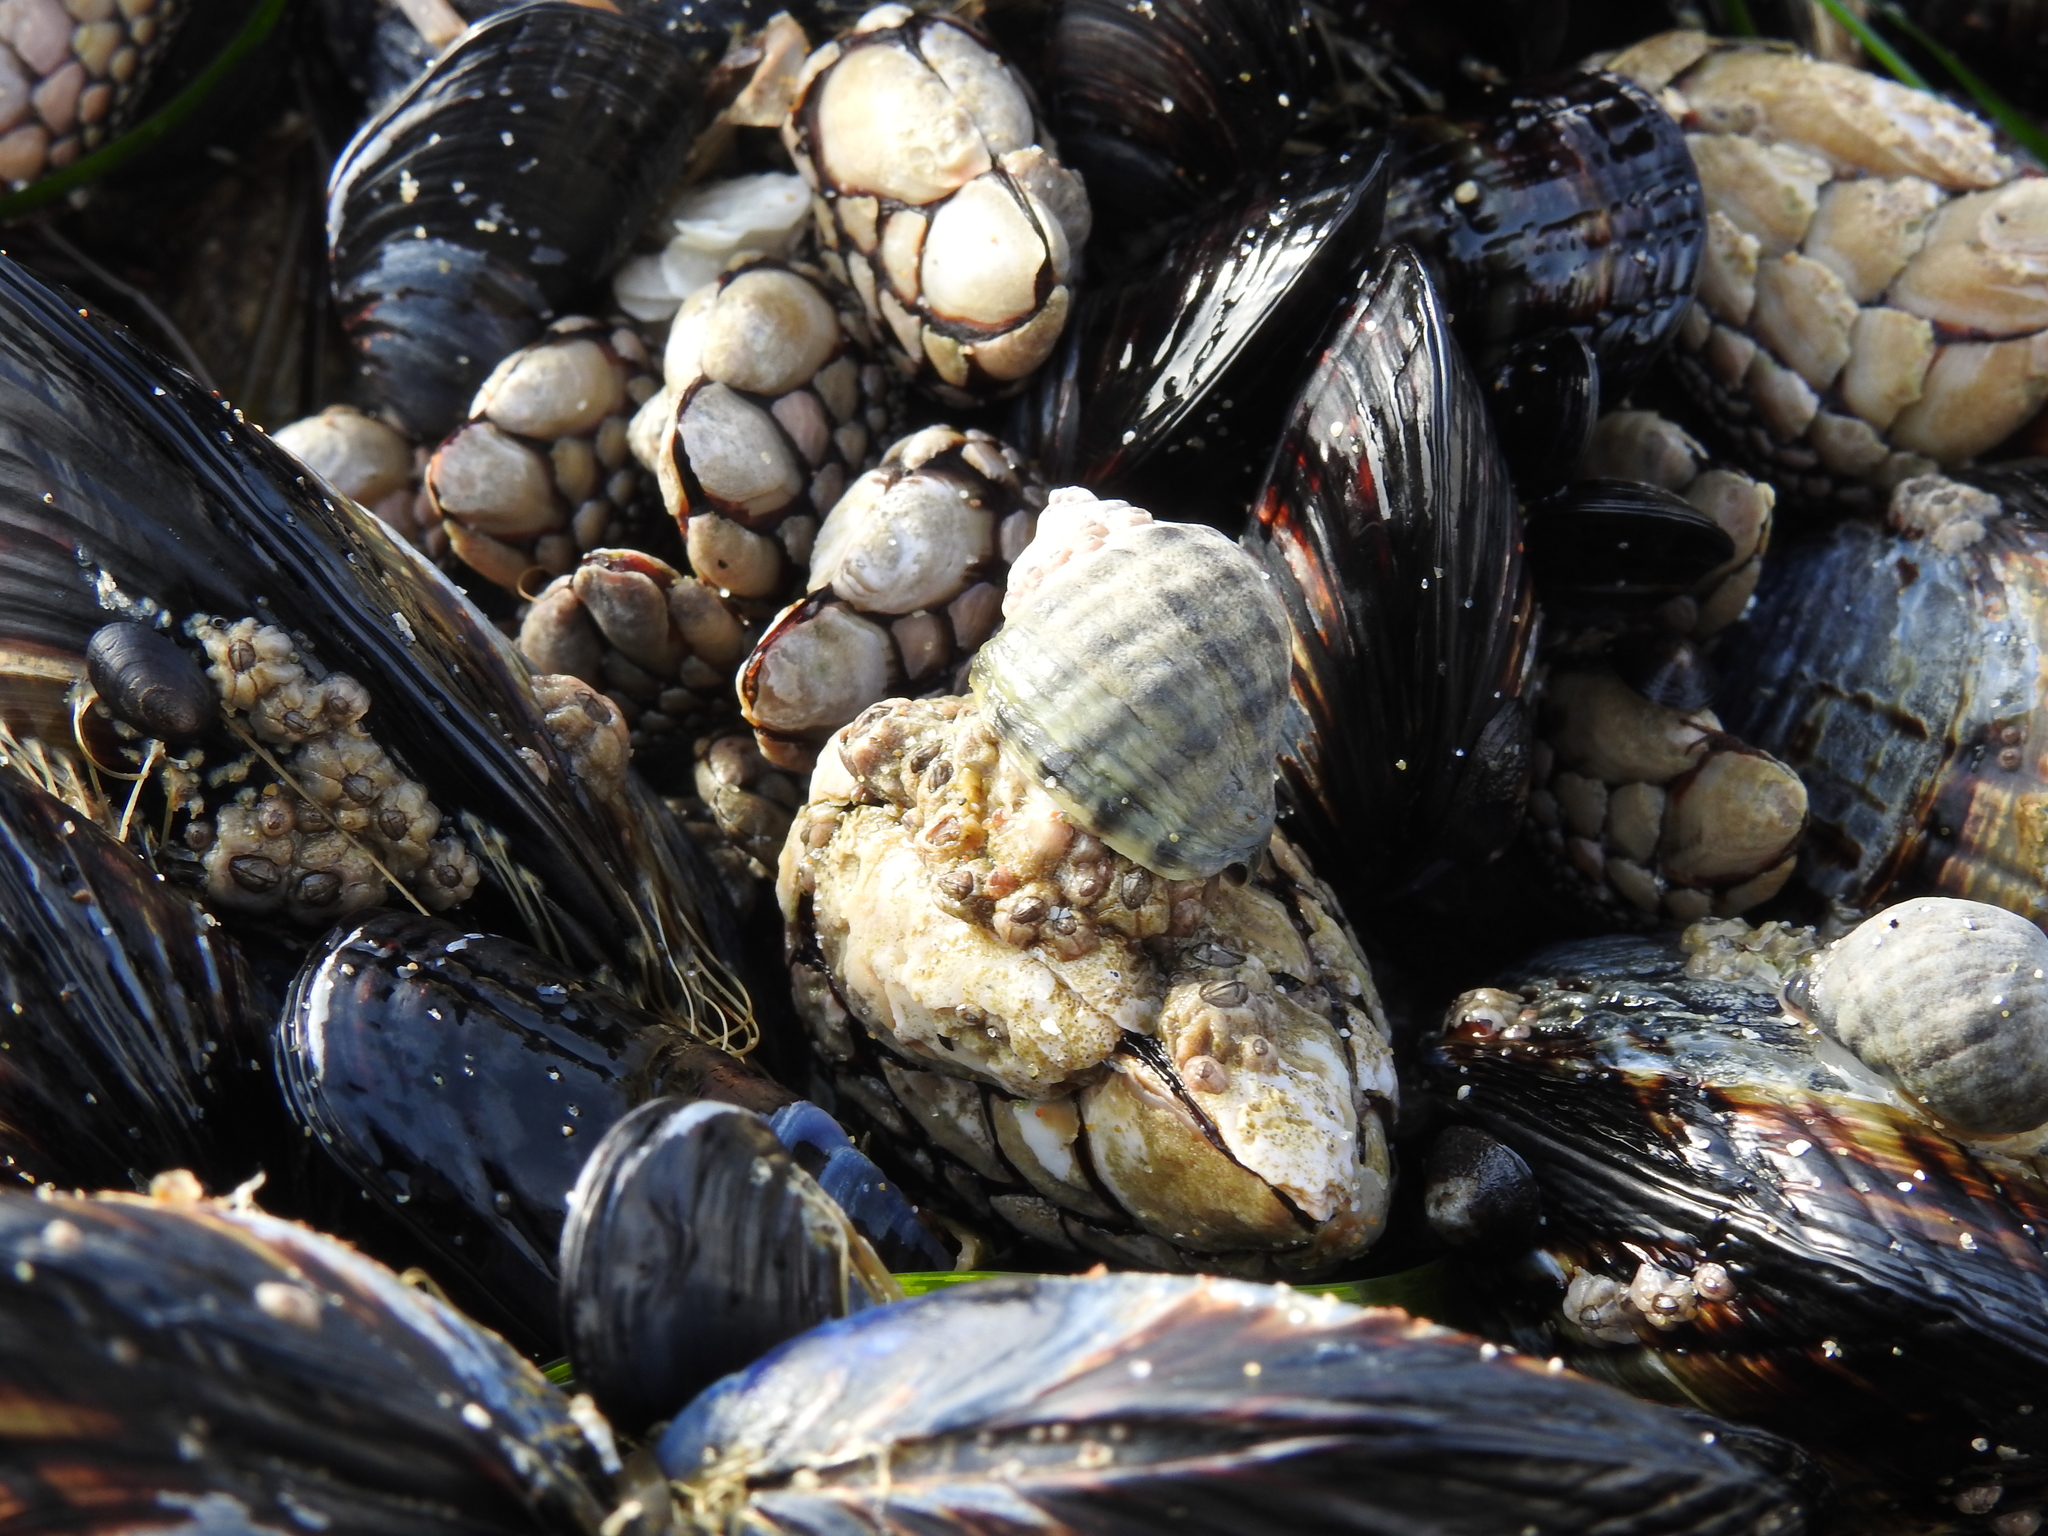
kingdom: Animalia
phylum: Mollusca
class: Gastropoda
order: Neogastropoda
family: Muricidae
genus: Nucella
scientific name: Nucella ostrina
